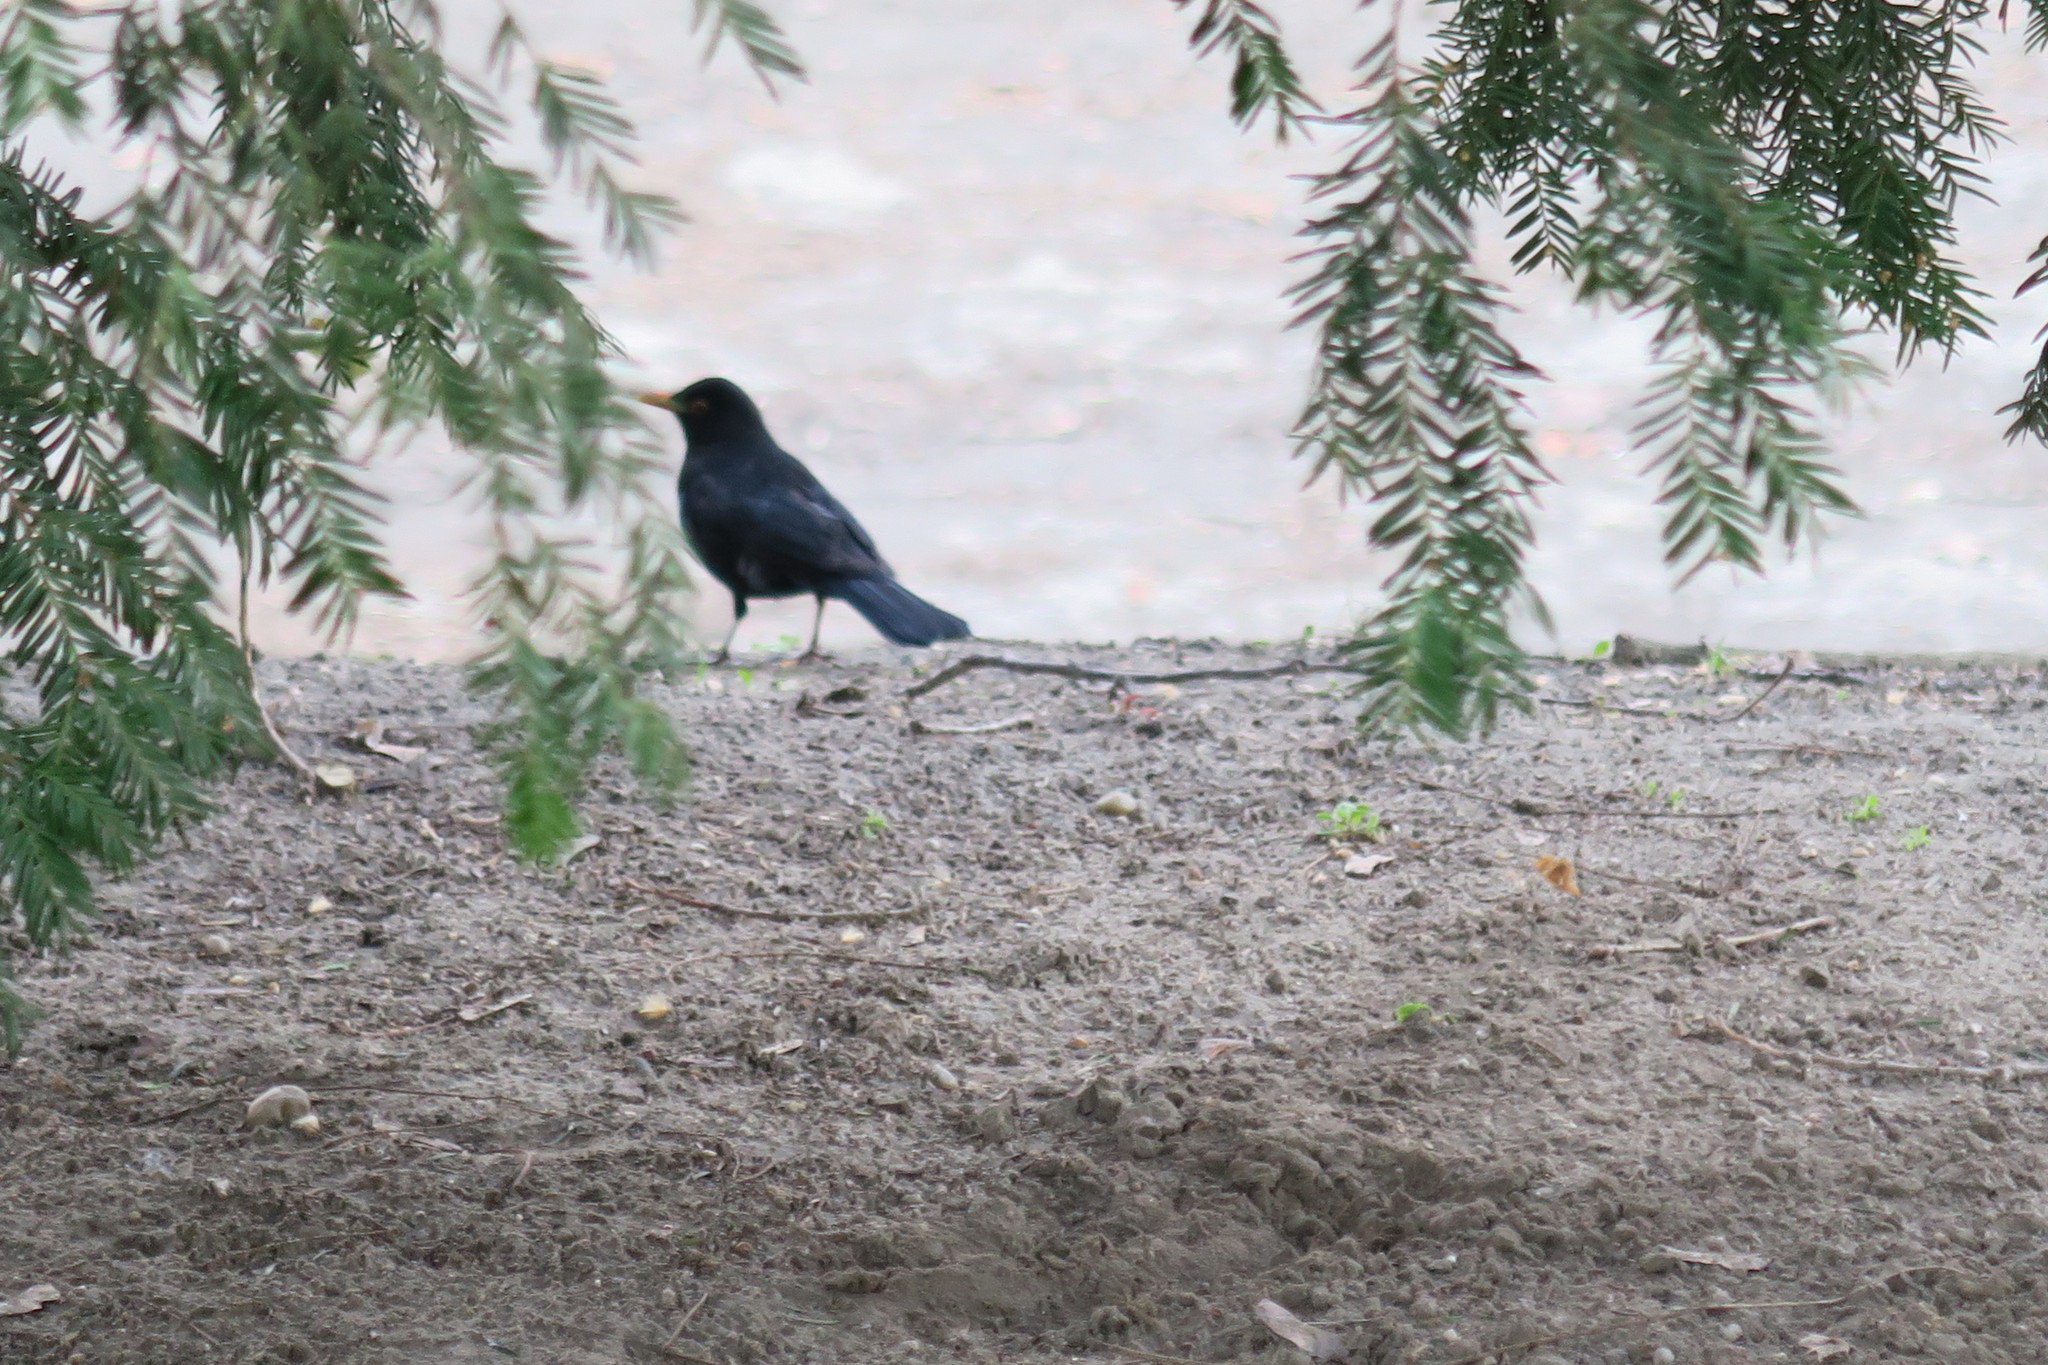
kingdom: Animalia
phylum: Chordata
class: Aves
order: Passeriformes
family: Turdidae
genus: Turdus
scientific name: Turdus merula
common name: Common blackbird
